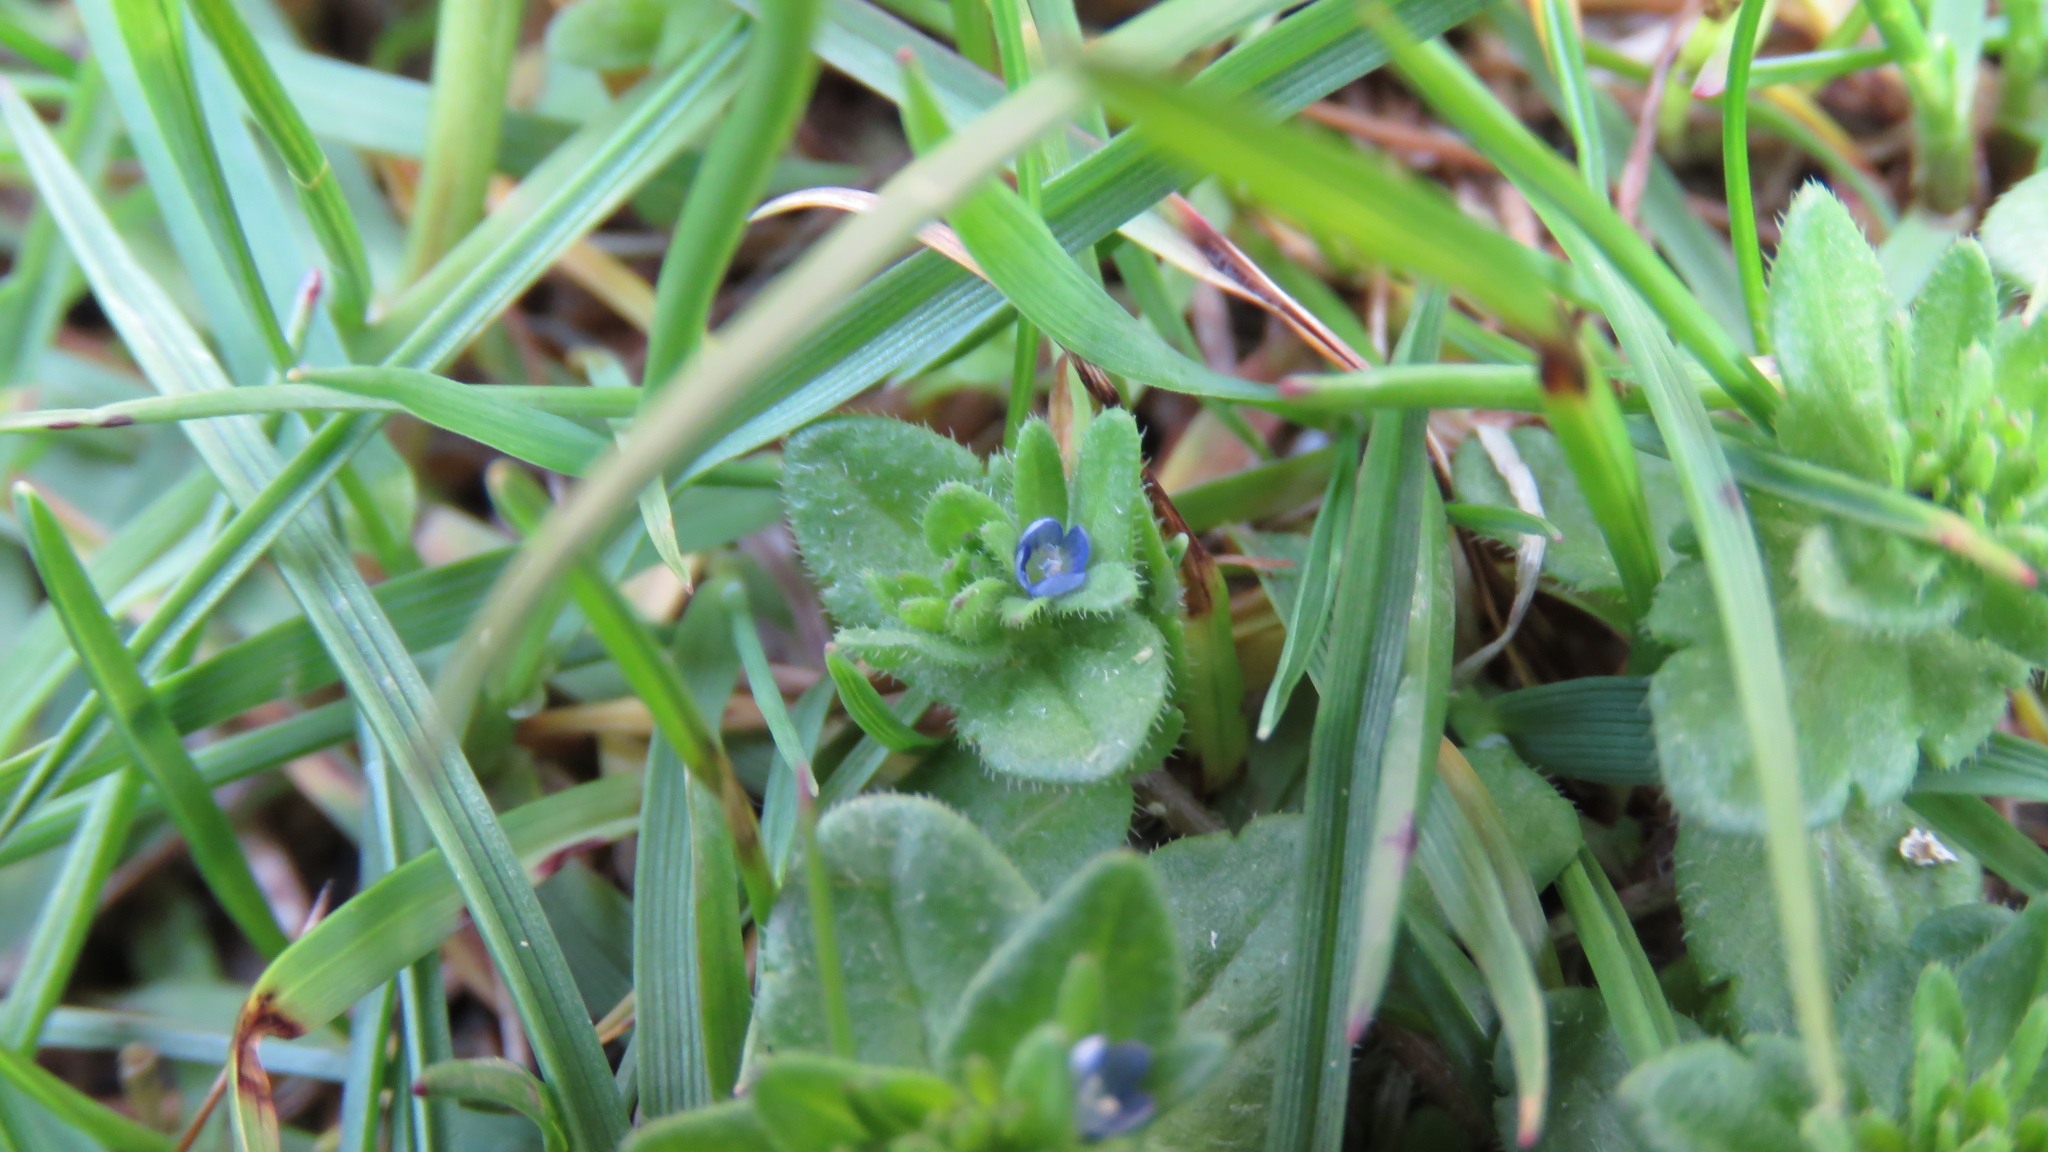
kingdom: Plantae
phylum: Tracheophyta
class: Magnoliopsida
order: Lamiales
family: Plantaginaceae
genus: Veronica
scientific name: Veronica arvensis
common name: Corn speedwell
